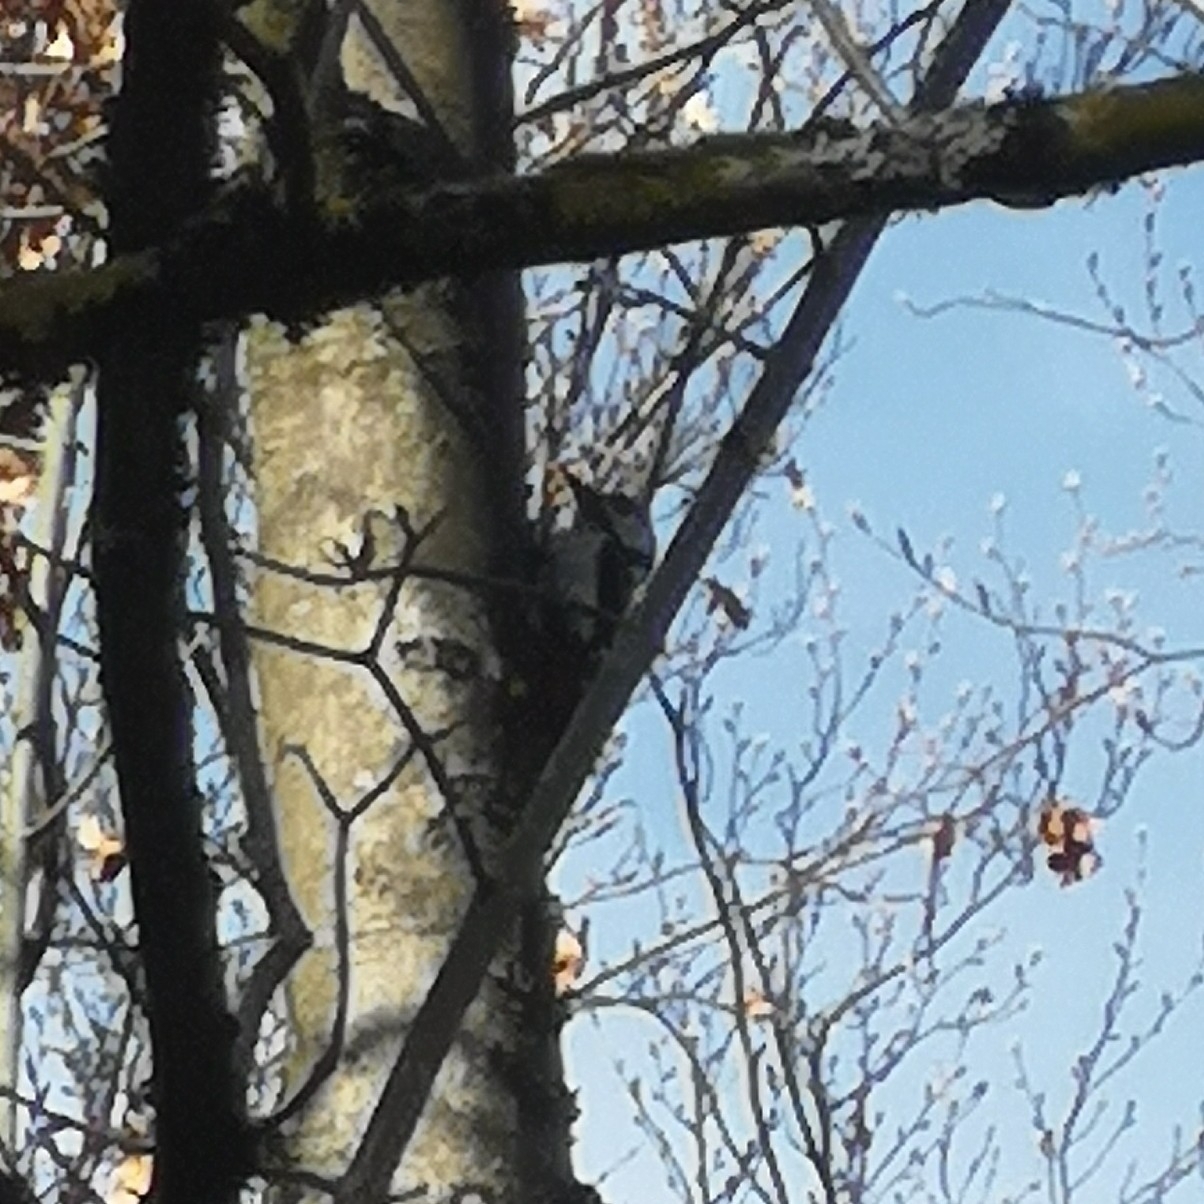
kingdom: Animalia
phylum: Chordata
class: Aves
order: Piciformes
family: Picidae
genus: Dendrocopos
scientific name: Dendrocopos major
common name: Great spotted woodpecker
